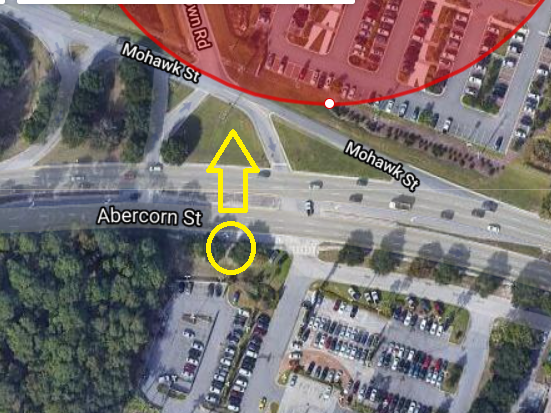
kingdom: Animalia
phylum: Chordata
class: Aves
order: Accipitriformes
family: Accipitridae
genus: Haliaeetus
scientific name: Haliaeetus leucocephalus
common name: Bald eagle
